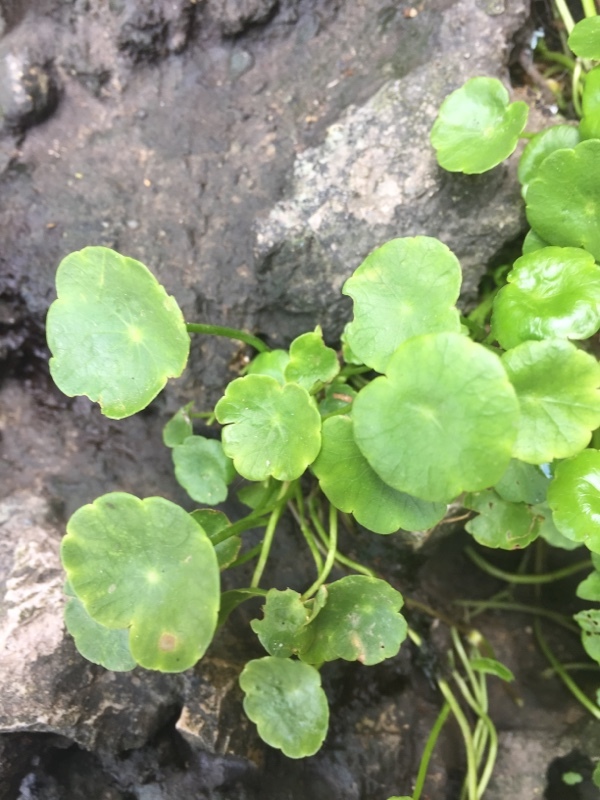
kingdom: Plantae
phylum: Tracheophyta
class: Magnoliopsida
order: Apiales
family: Araliaceae
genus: Hydrocotyle
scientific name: Hydrocotyle verticillata
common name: Whorled marshpennywort
